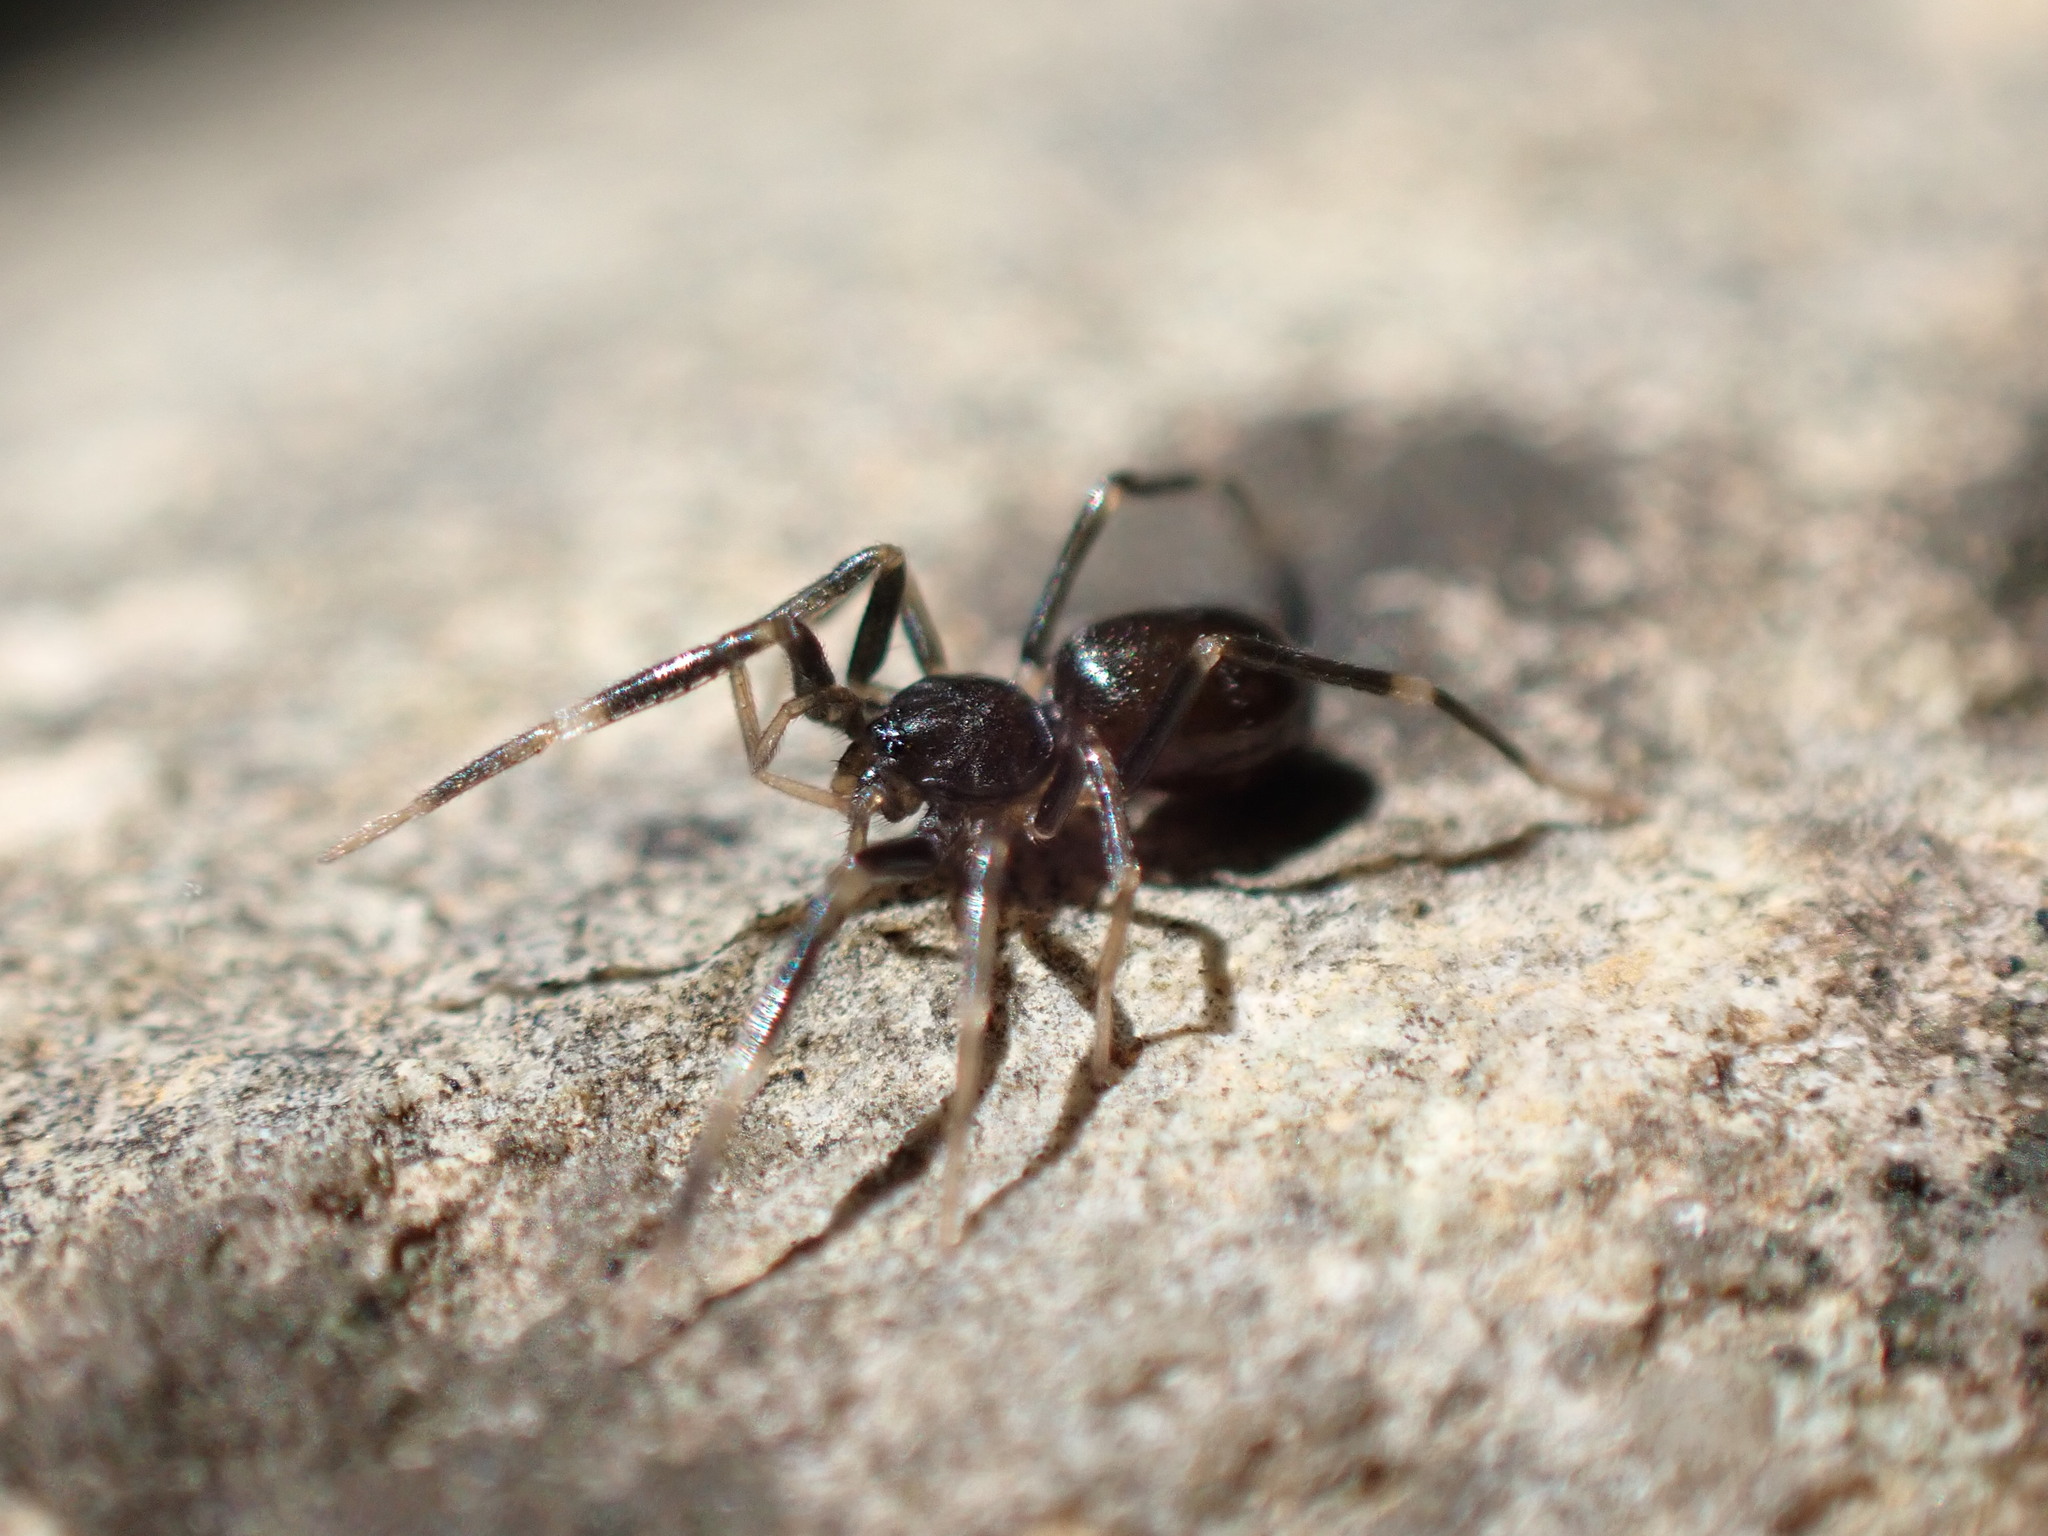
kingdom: Animalia
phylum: Arthropoda
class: Arachnida
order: Araneae
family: Phrurolithidae
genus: Liophrurillus
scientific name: Liophrurillus flavitarsis
